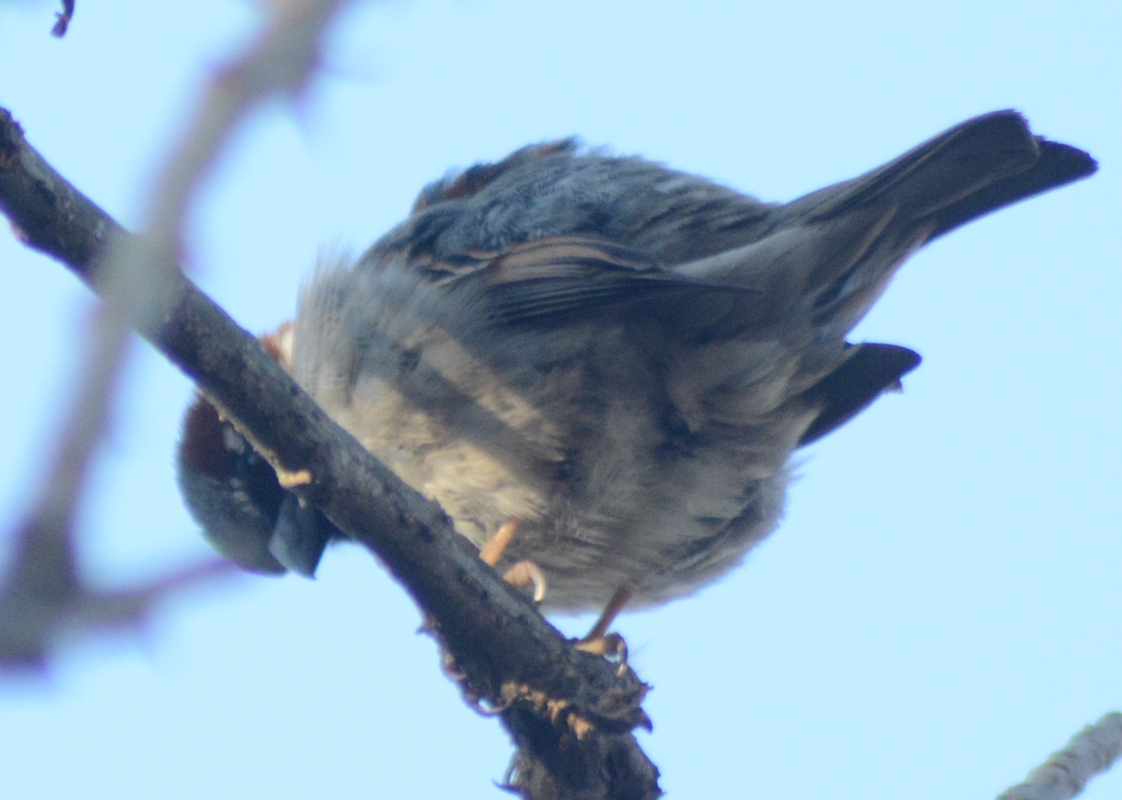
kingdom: Animalia
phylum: Chordata
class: Aves
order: Passeriformes
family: Passeridae
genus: Passer
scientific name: Passer domesticus
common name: House sparrow
